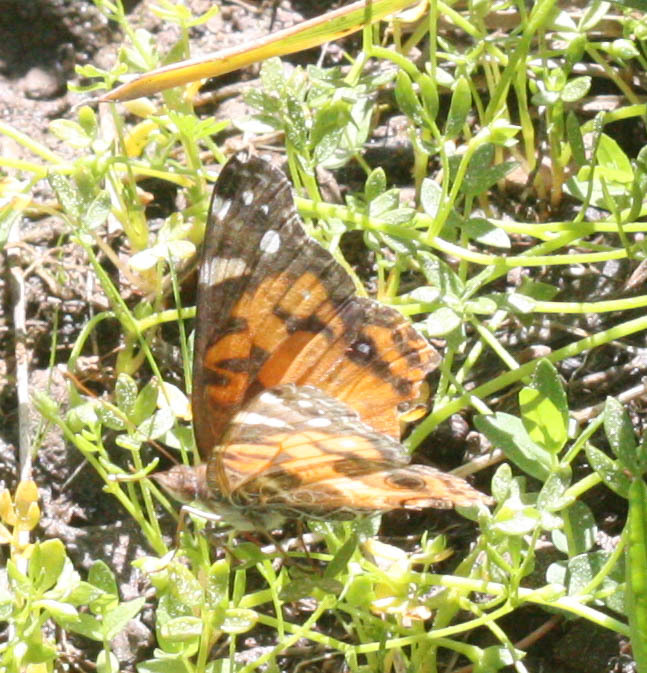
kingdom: Animalia
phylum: Arthropoda
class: Insecta
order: Lepidoptera
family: Nymphalidae
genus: Vanessa
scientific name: Vanessa virginiensis
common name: American lady
